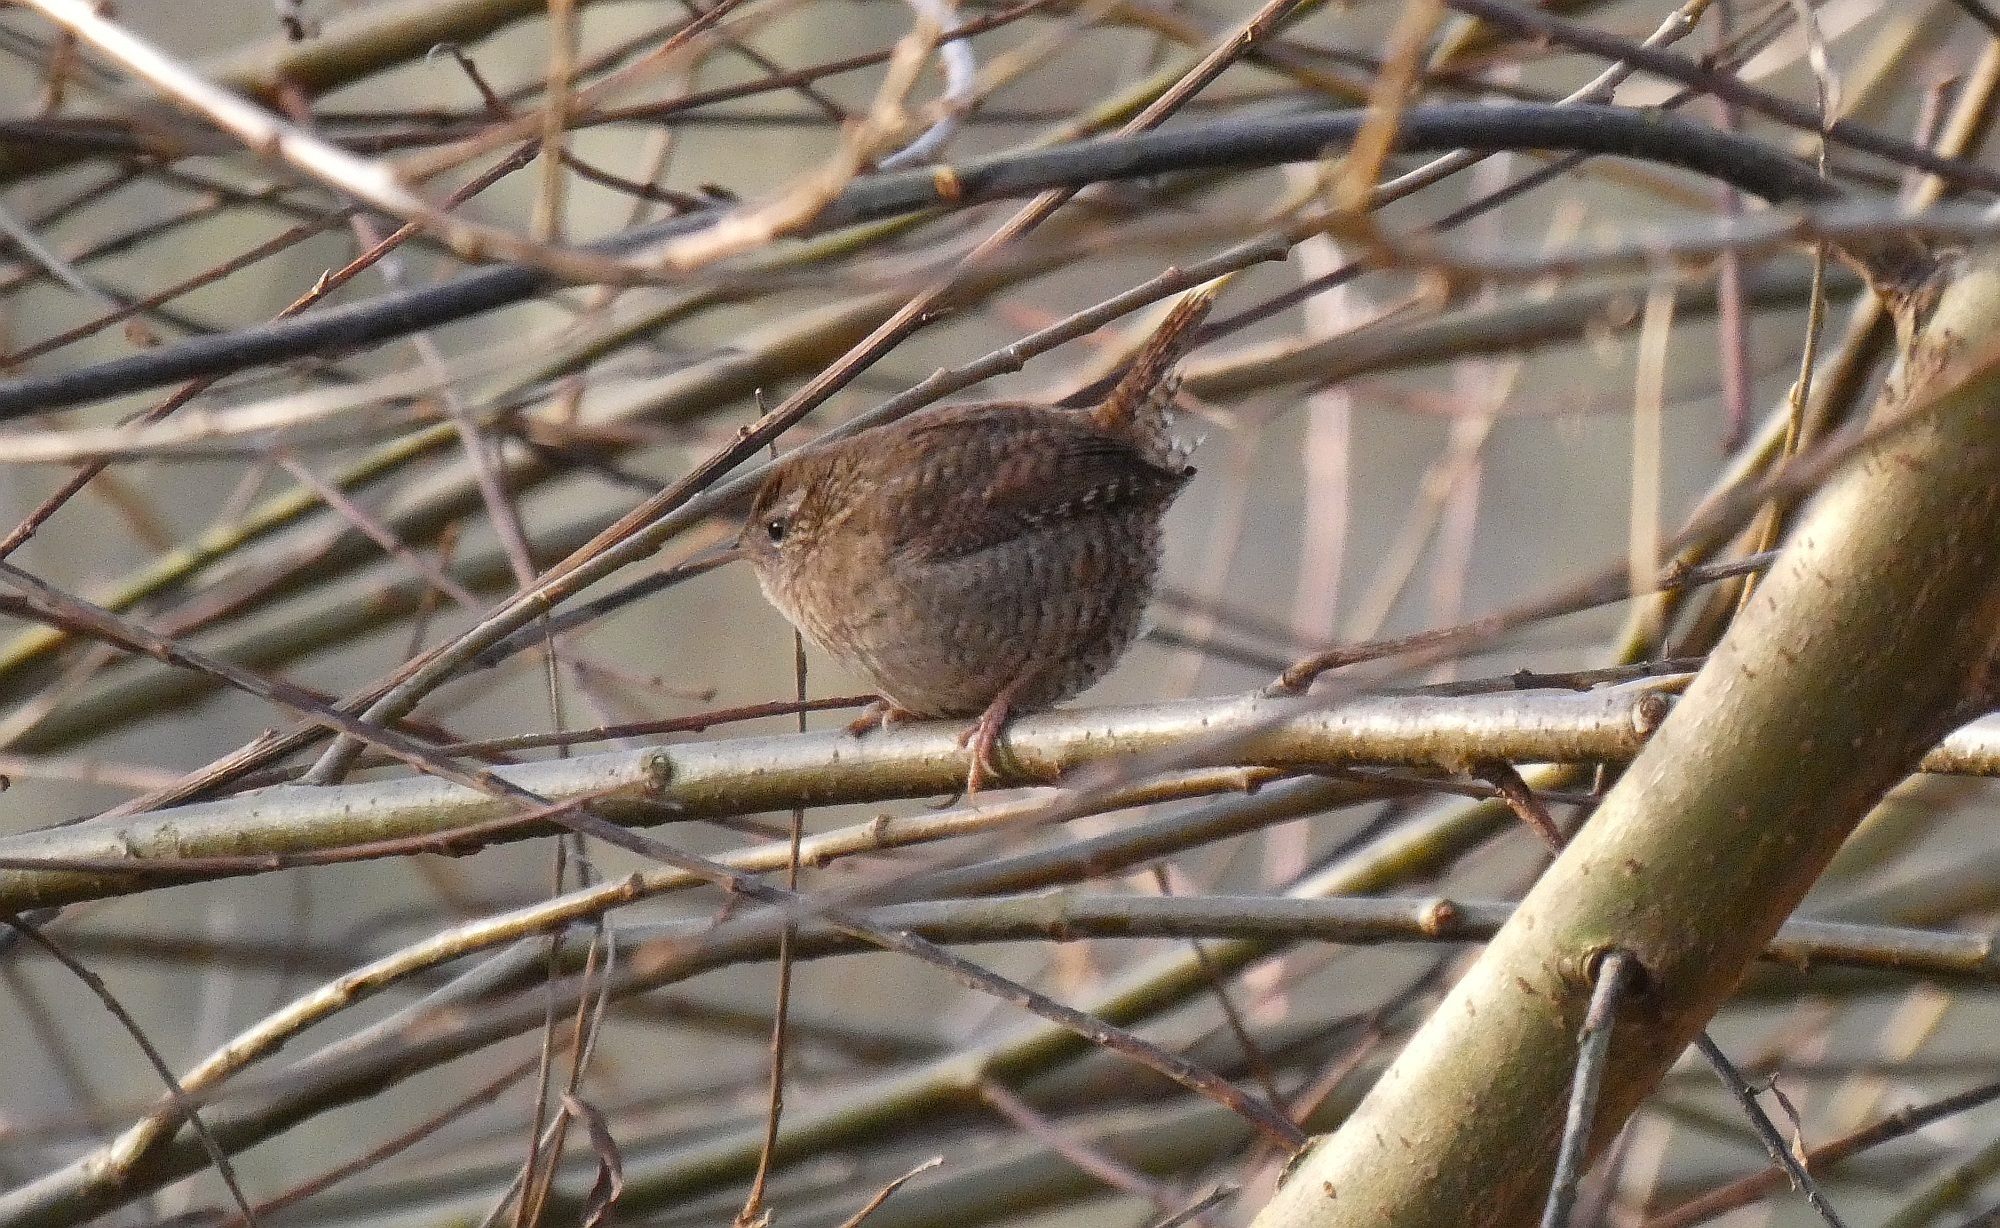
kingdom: Animalia
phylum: Chordata
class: Aves
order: Passeriformes
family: Troglodytidae
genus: Troglodytes
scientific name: Troglodytes troglodytes
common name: Eurasian wren
